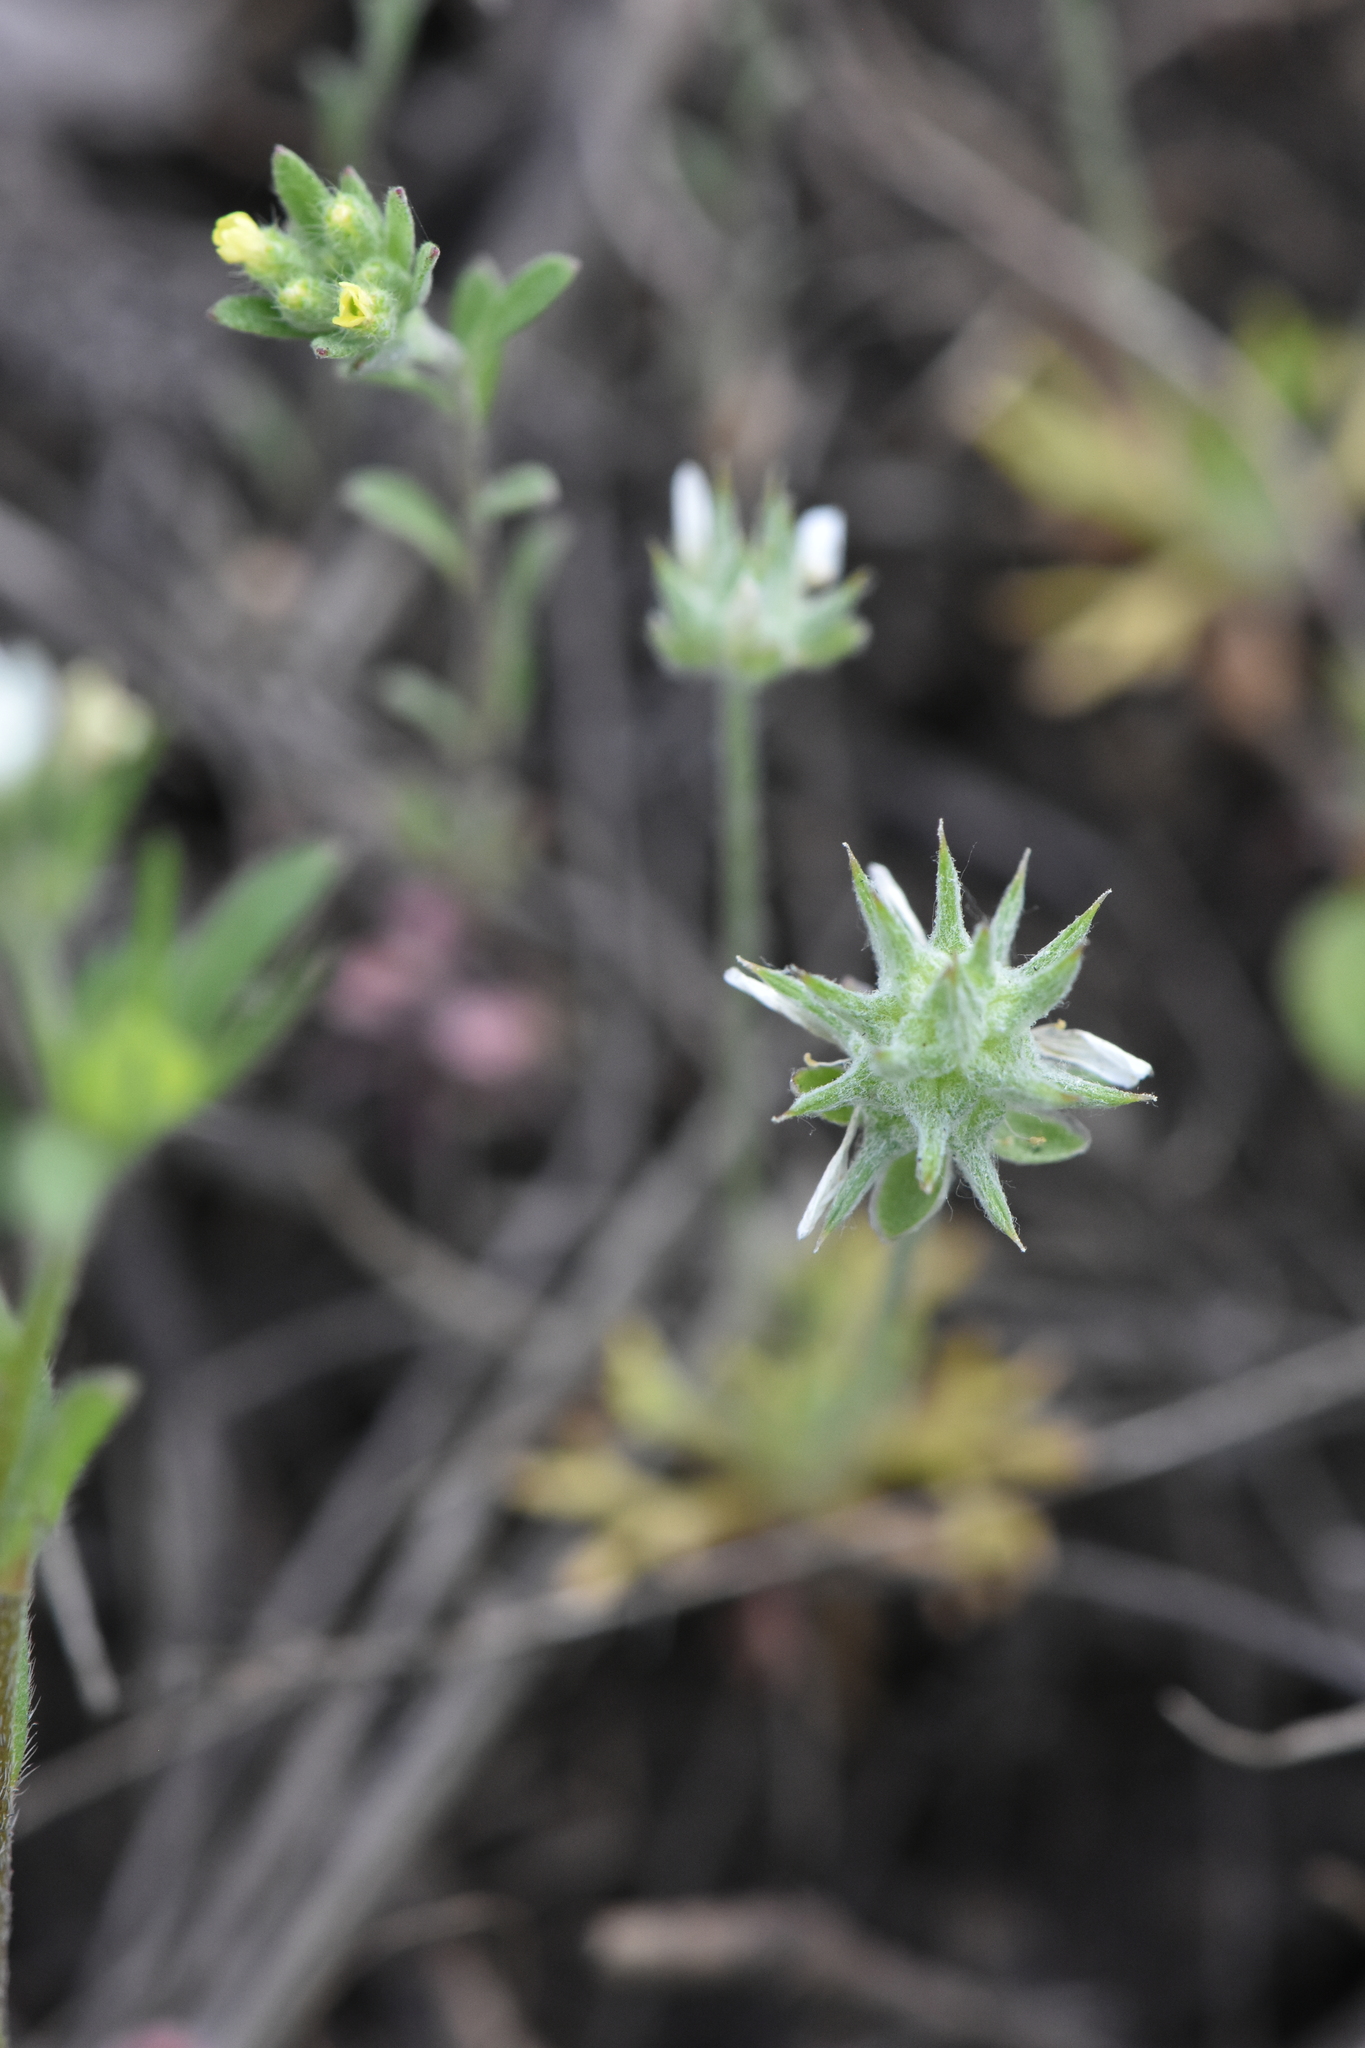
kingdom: Plantae
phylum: Tracheophyta
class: Magnoliopsida
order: Ranunculales
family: Ranunculaceae
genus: Ceratocephala
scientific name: Ceratocephala orthoceras
